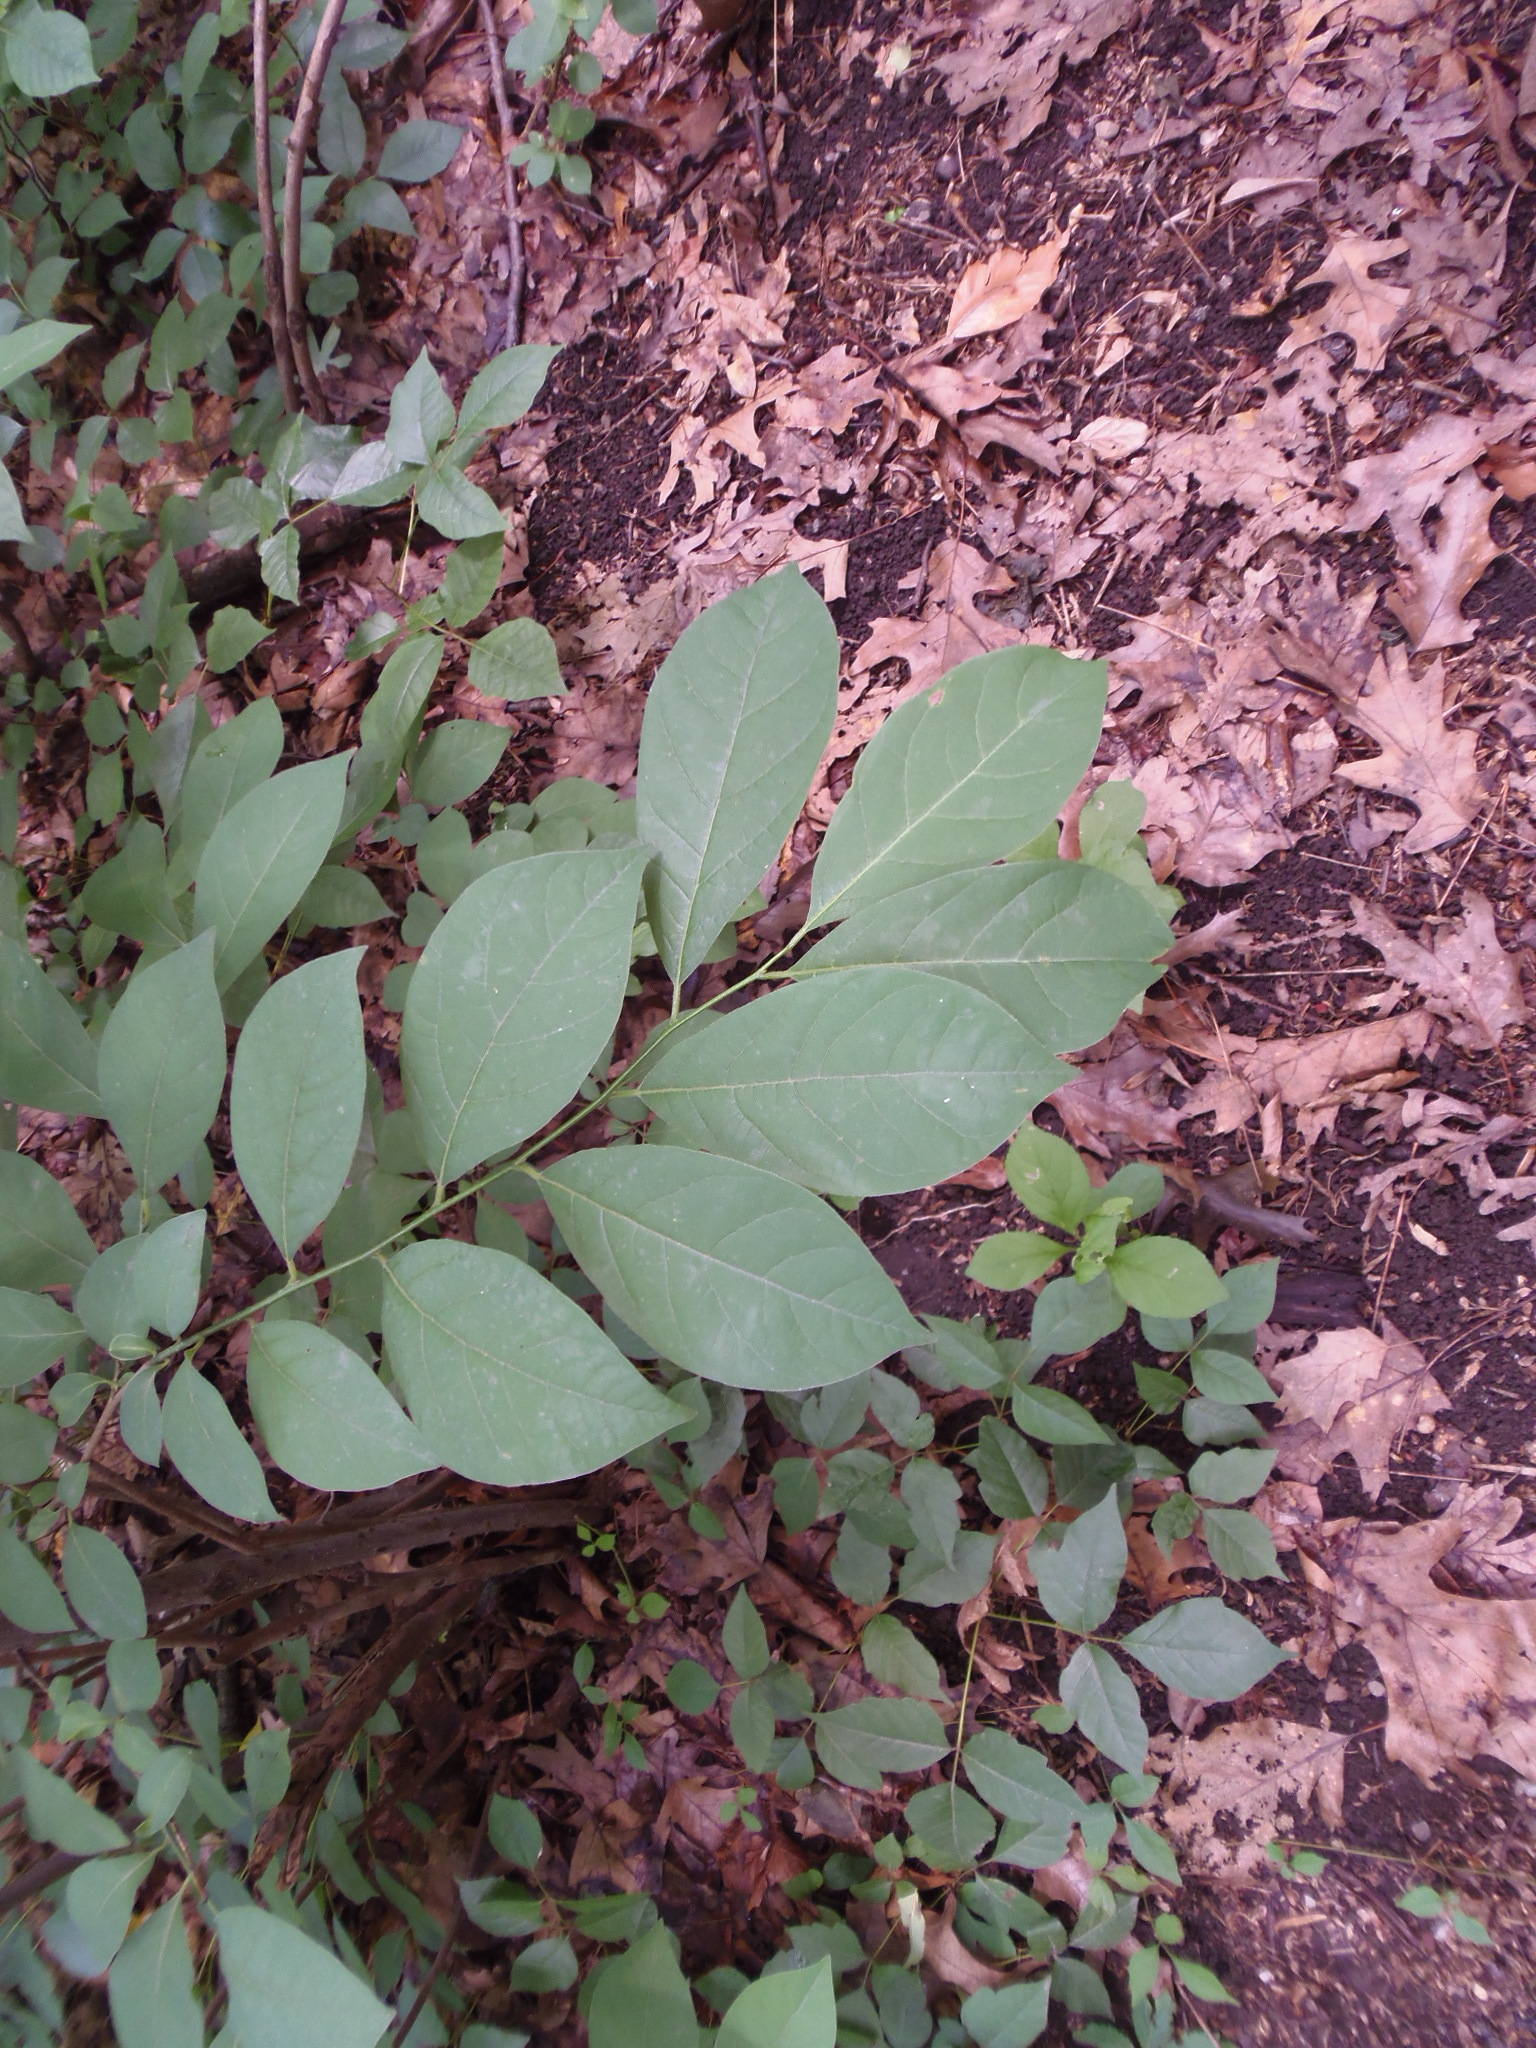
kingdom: Plantae
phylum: Tracheophyta
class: Magnoliopsida
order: Laurales
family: Lauraceae
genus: Lindera
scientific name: Lindera benzoin
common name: Spicebush
